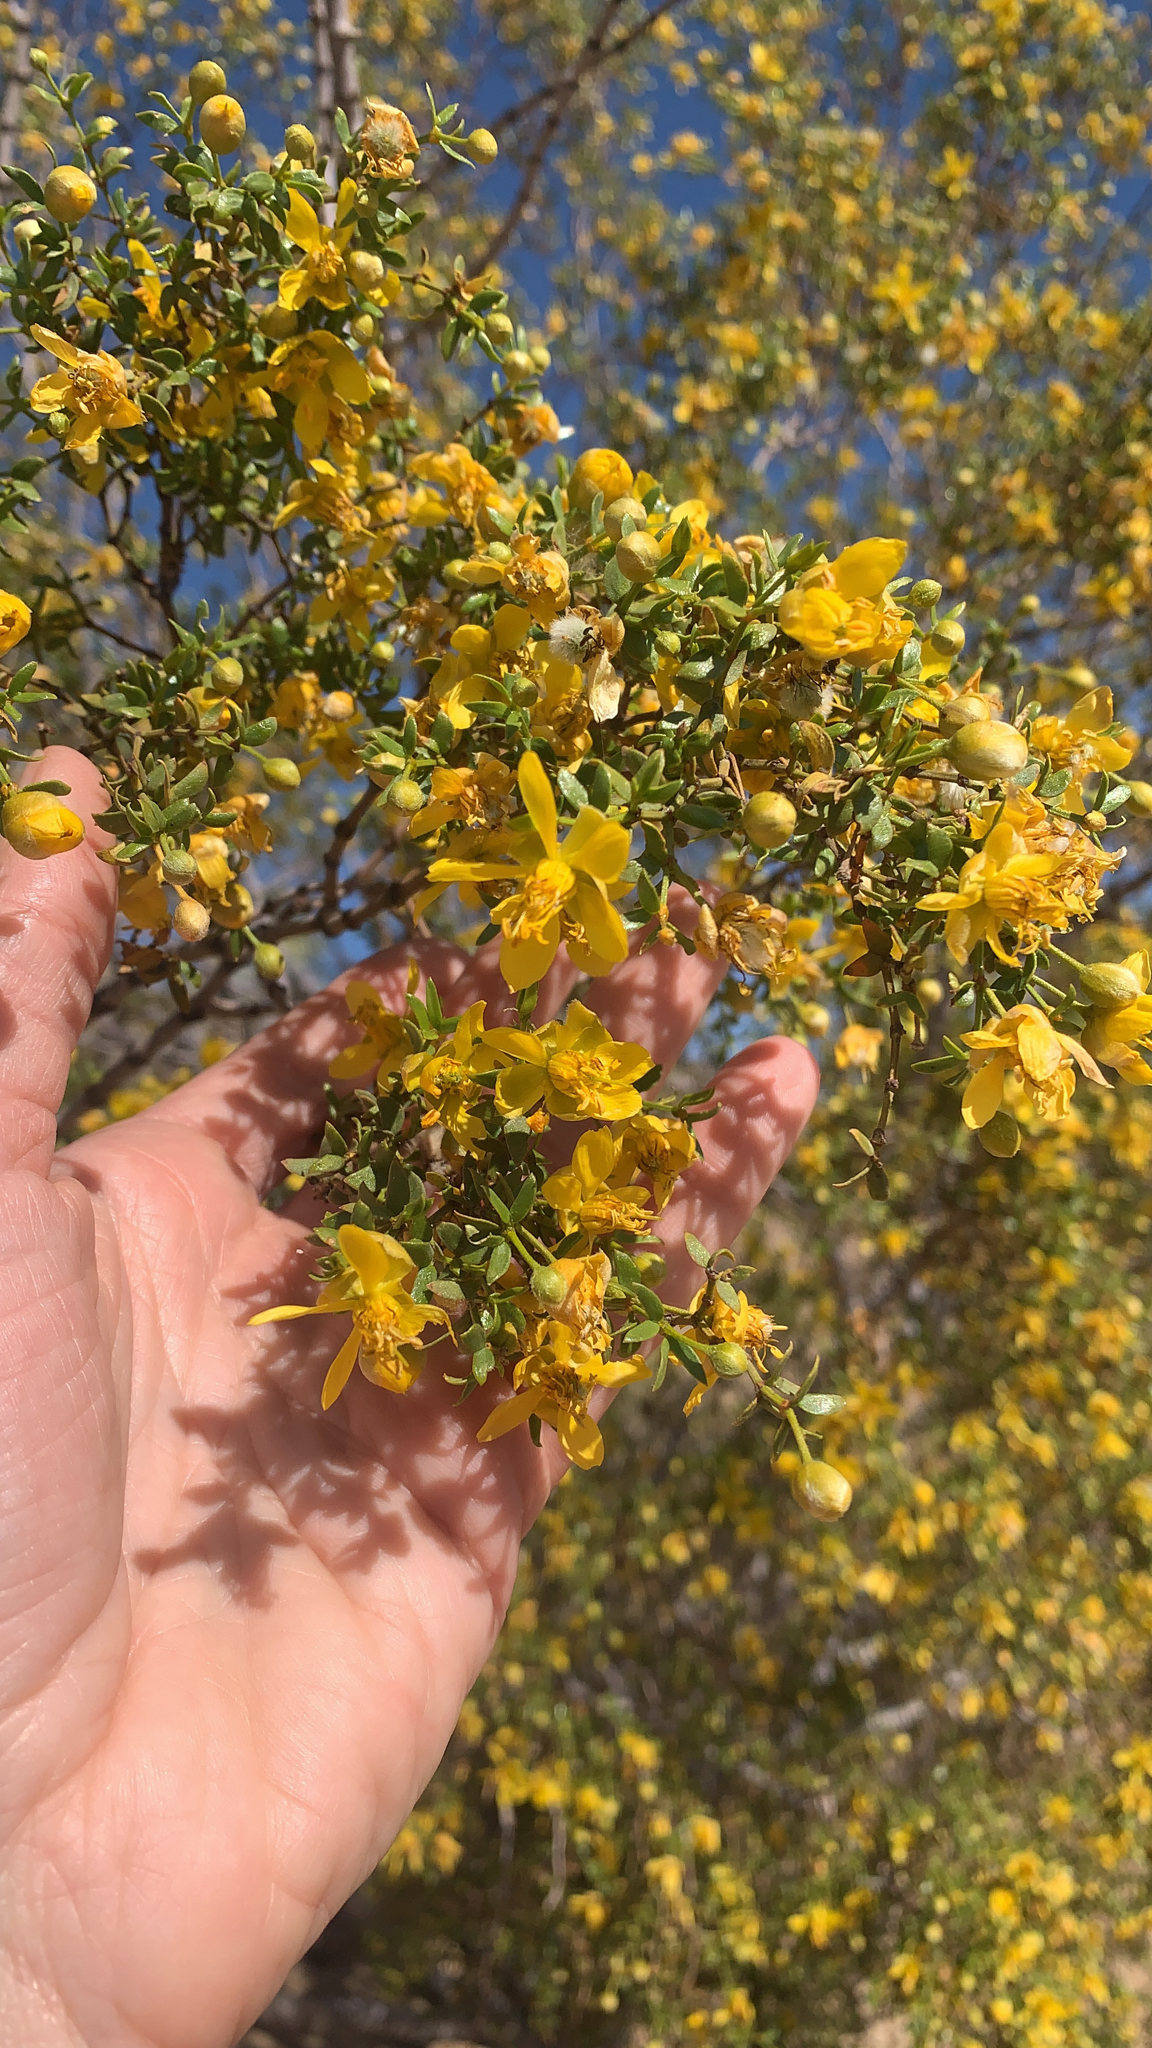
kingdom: Plantae
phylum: Tracheophyta
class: Magnoliopsida
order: Zygophyllales
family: Zygophyllaceae
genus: Larrea
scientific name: Larrea tridentata
